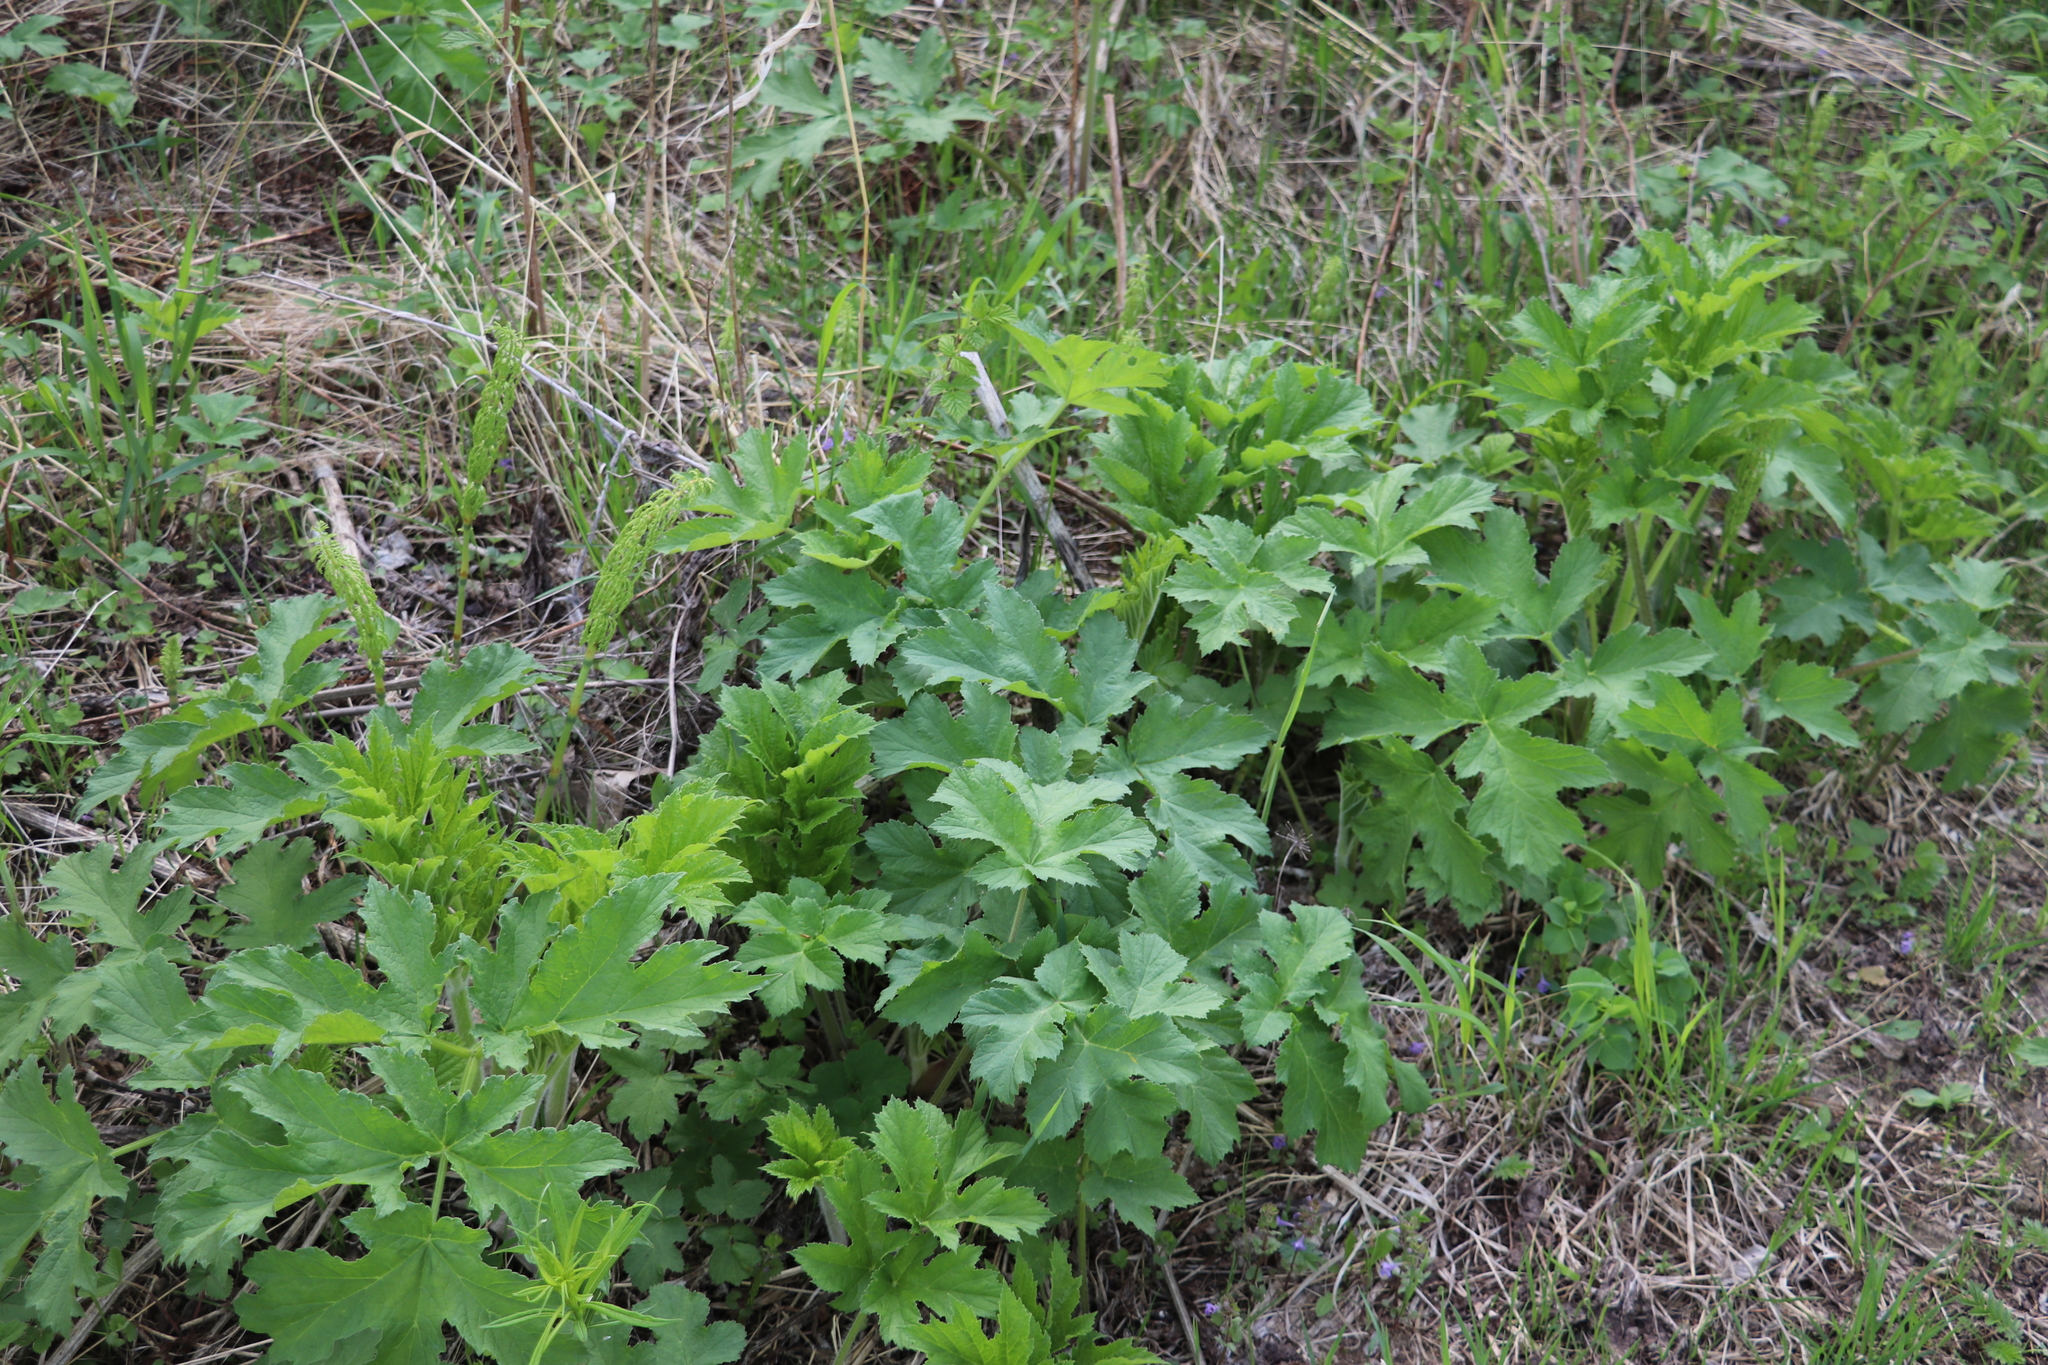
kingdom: Plantae
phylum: Tracheophyta
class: Magnoliopsida
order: Apiales
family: Apiaceae
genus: Heracleum
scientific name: Heracleum dissectum
